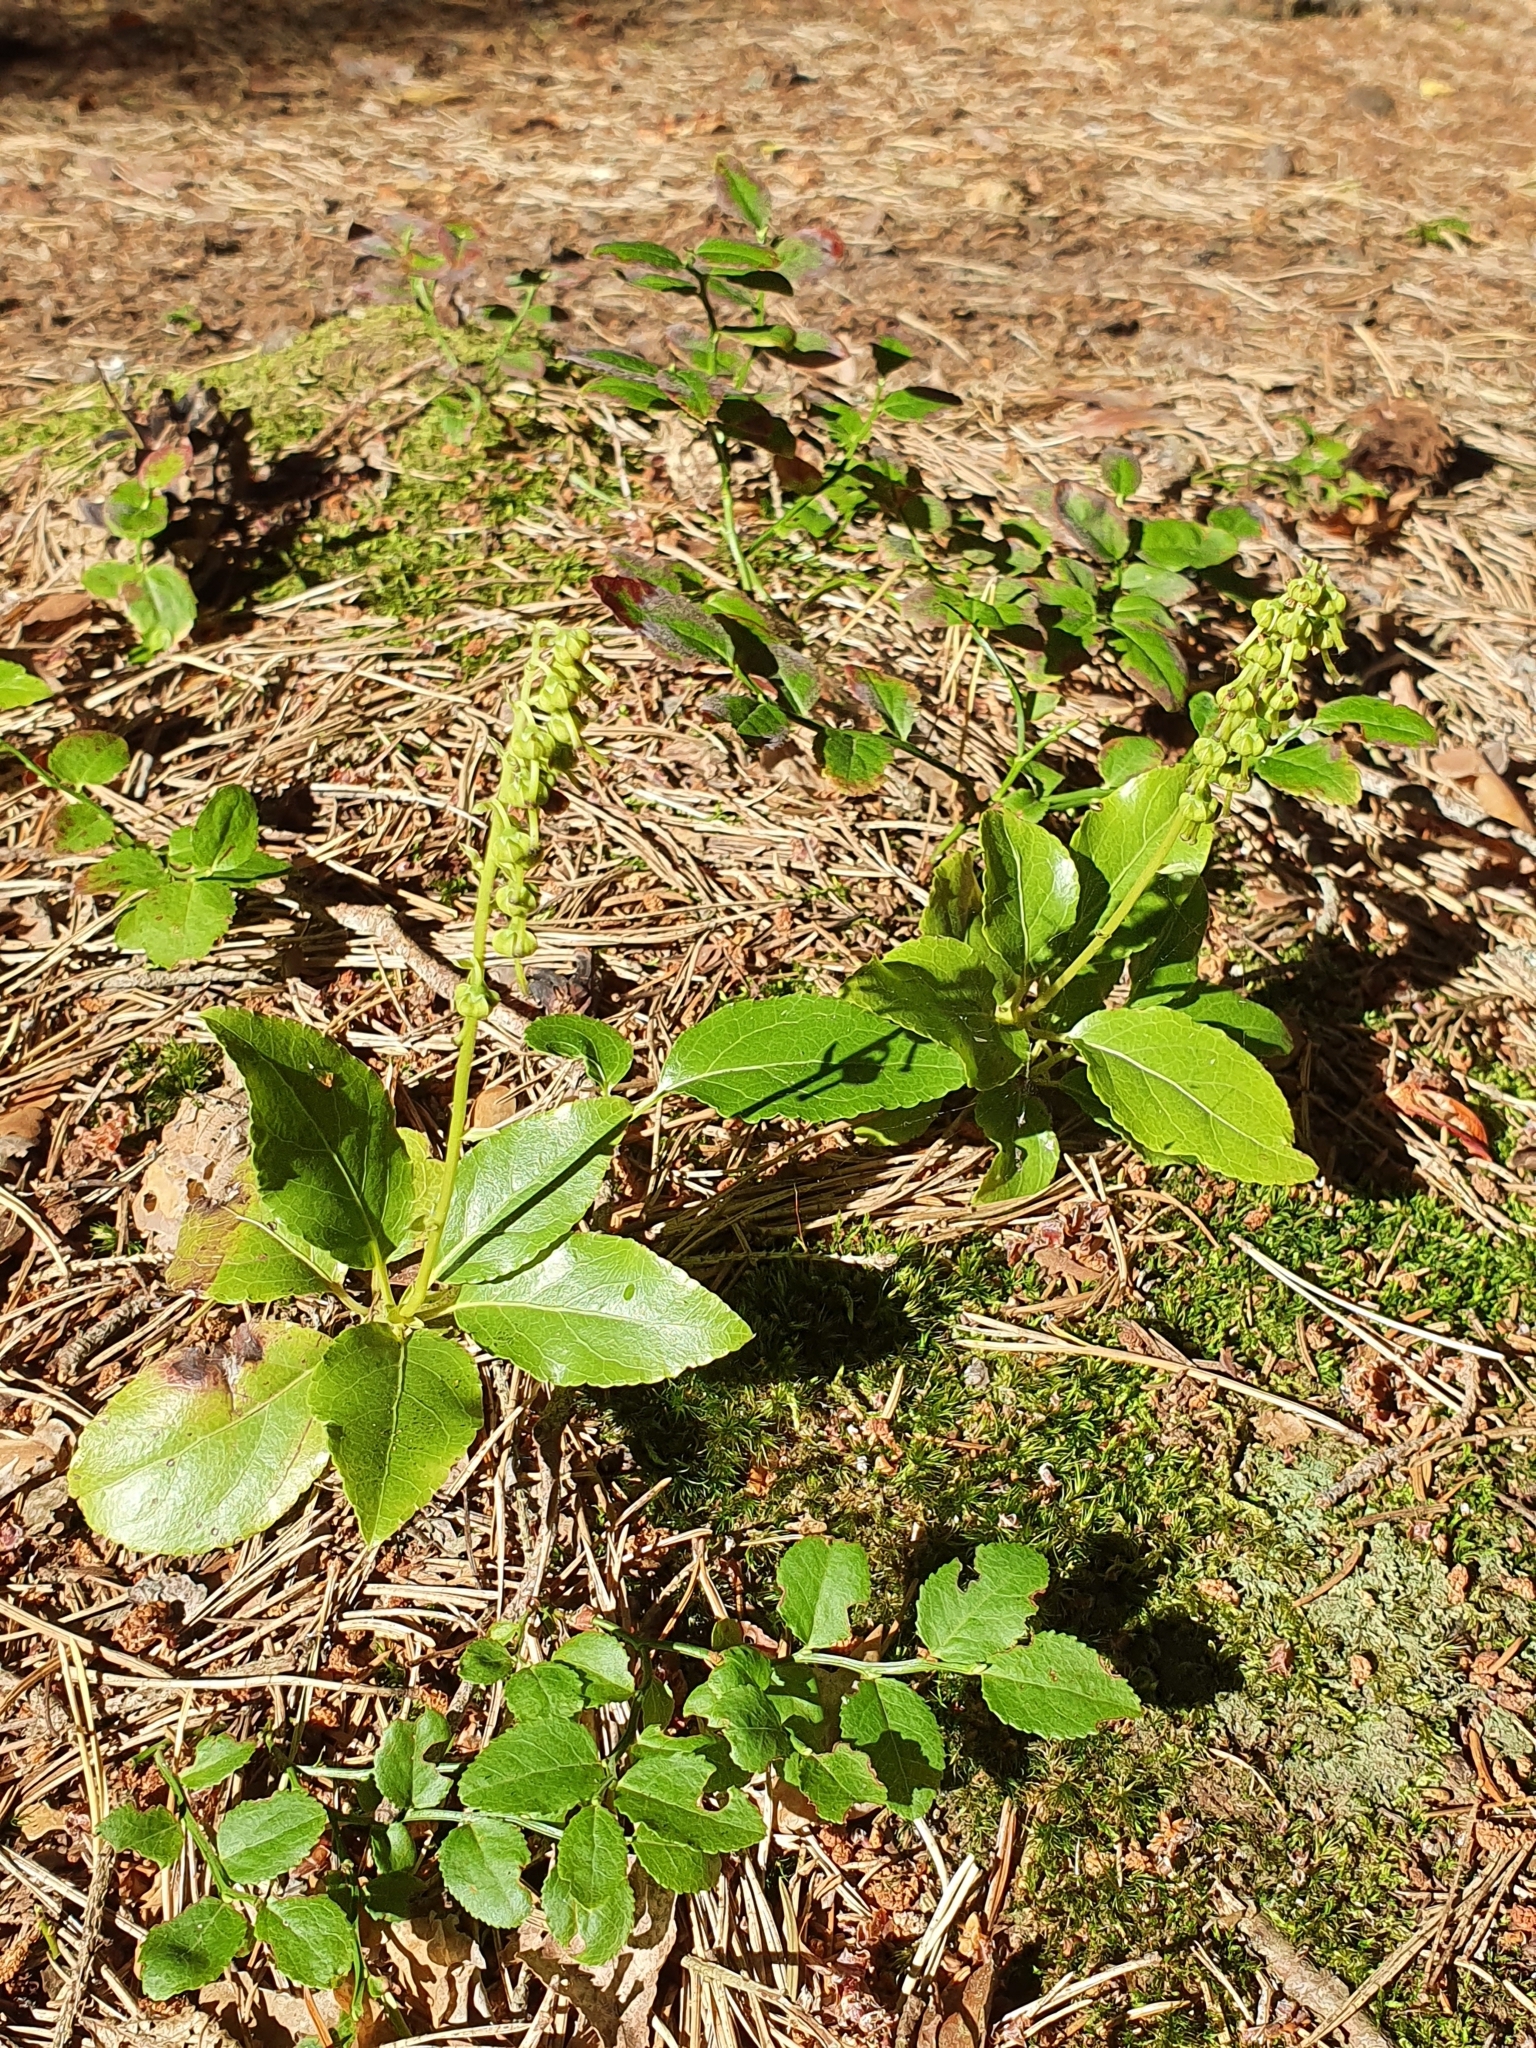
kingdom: Plantae
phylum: Tracheophyta
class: Magnoliopsida
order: Ericales
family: Ericaceae
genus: Orthilia
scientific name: Orthilia secunda
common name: One-sided orthilia
